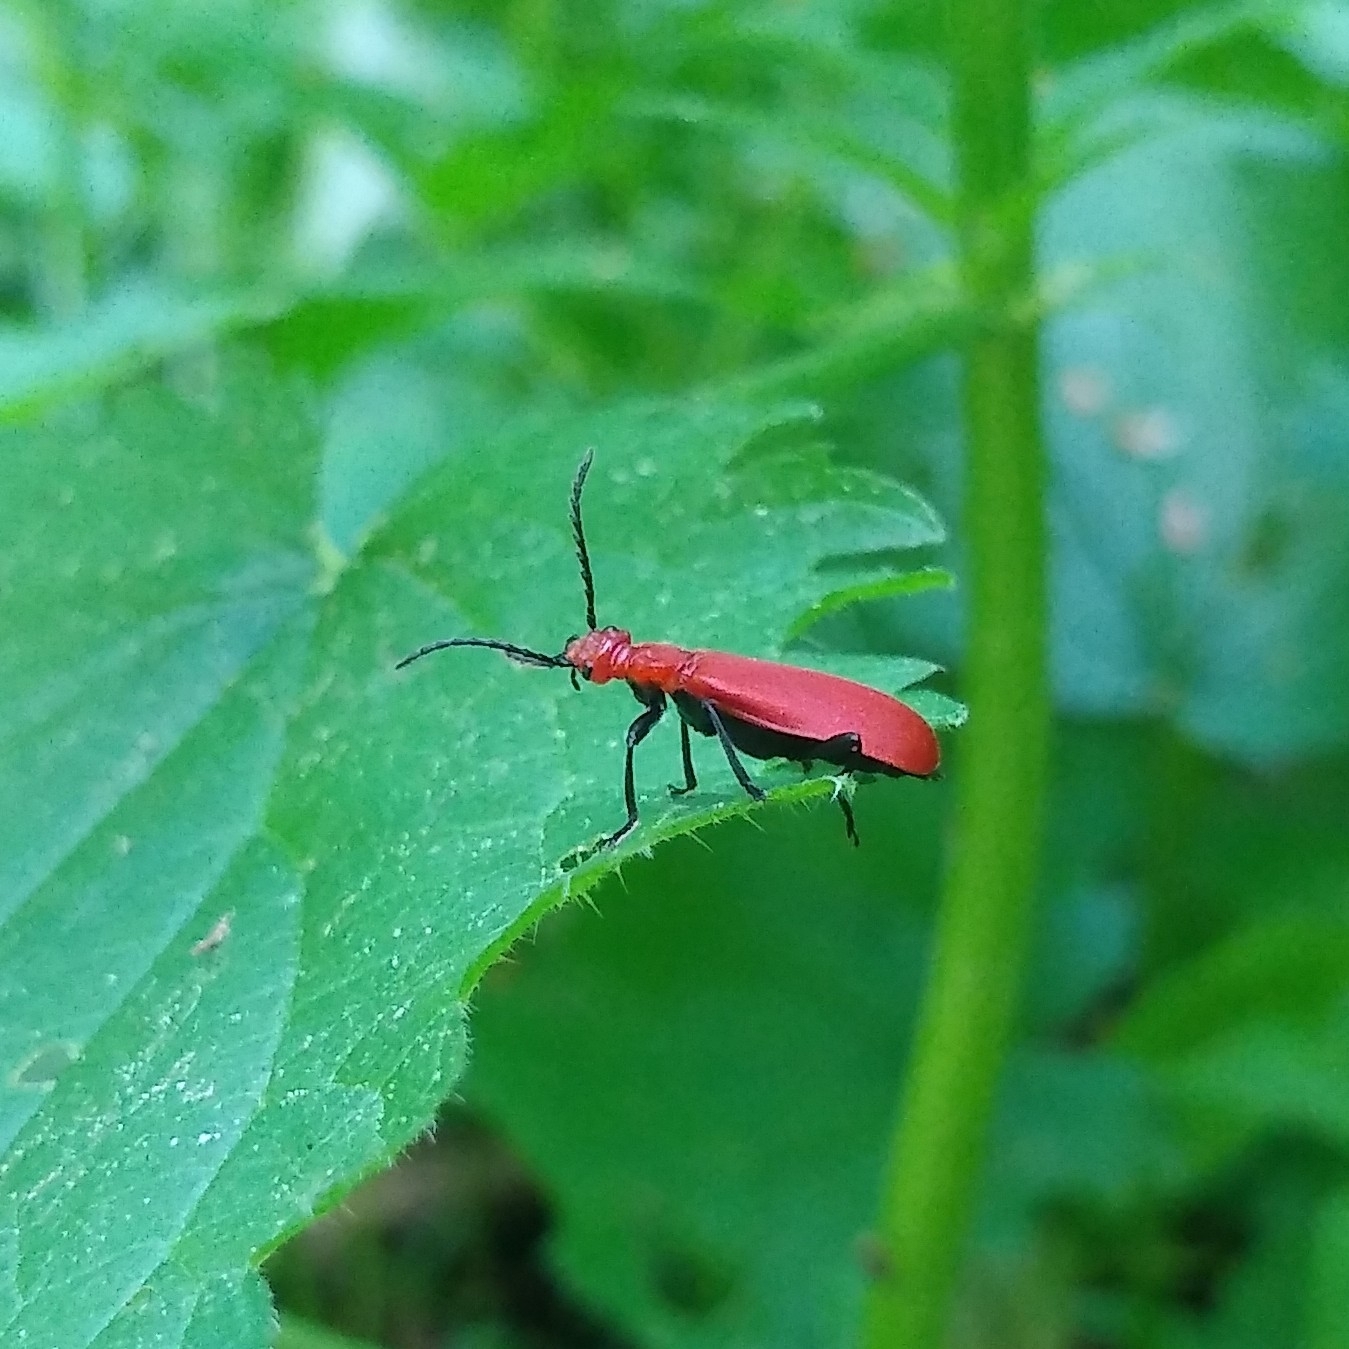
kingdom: Animalia
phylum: Arthropoda
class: Insecta
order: Coleoptera
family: Pyrochroidae
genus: Pyrochroa
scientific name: Pyrochroa serraticornis
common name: Red-headed cardinal beetle
